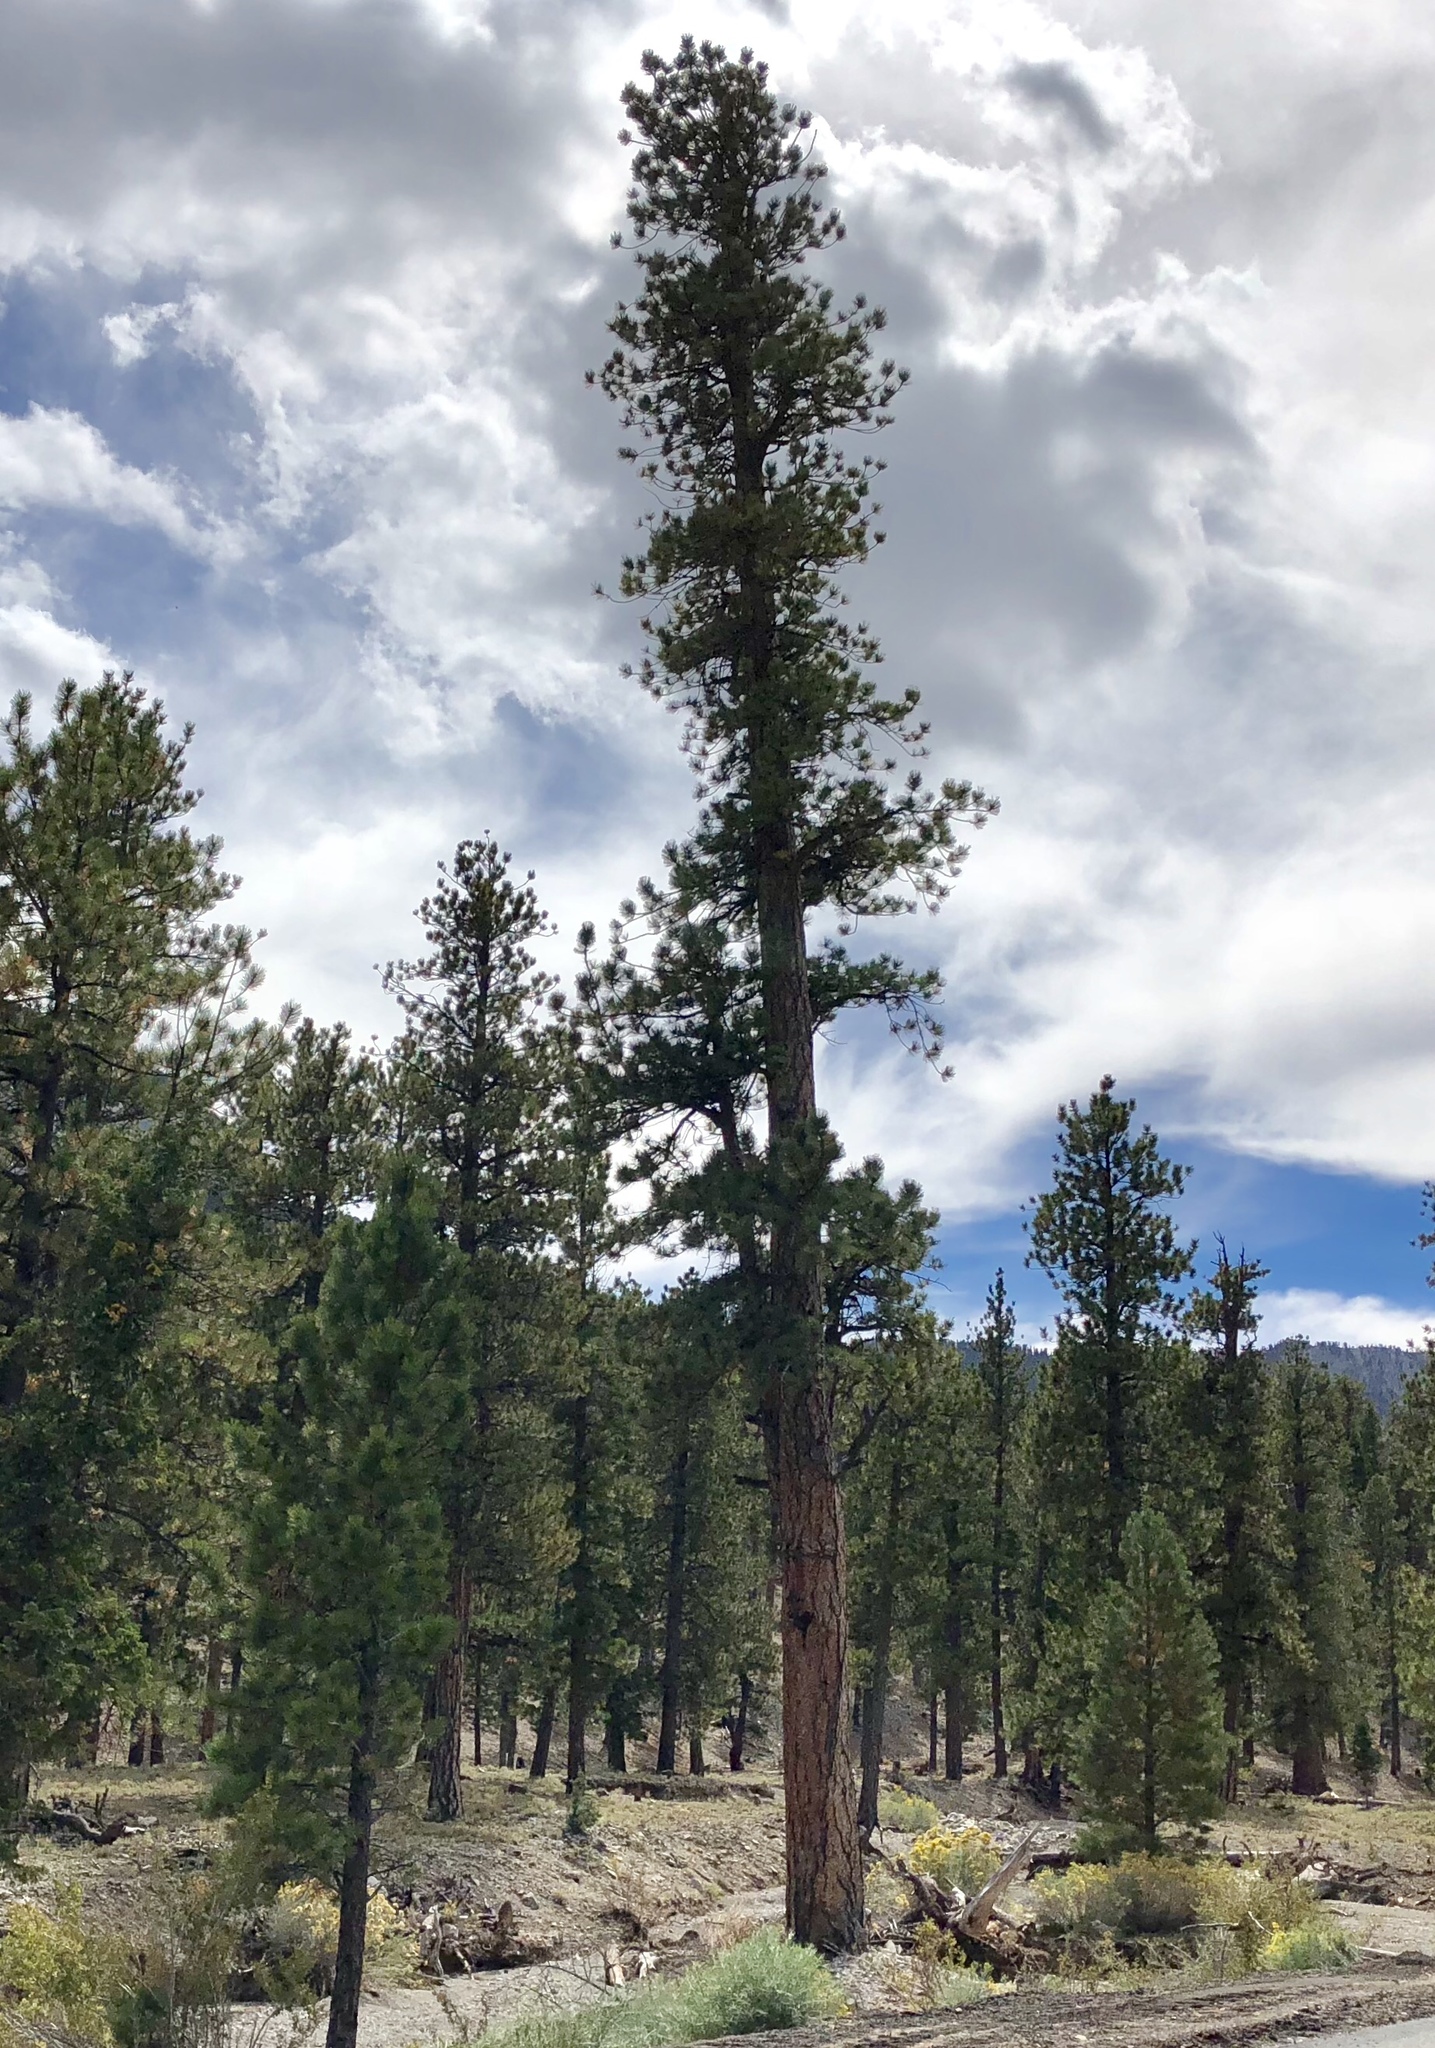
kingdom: Plantae
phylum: Tracheophyta
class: Pinopsida
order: Pinales
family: Pinaceae
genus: Pinus
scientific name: Pinus ponderosa
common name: Western yellow-pine
